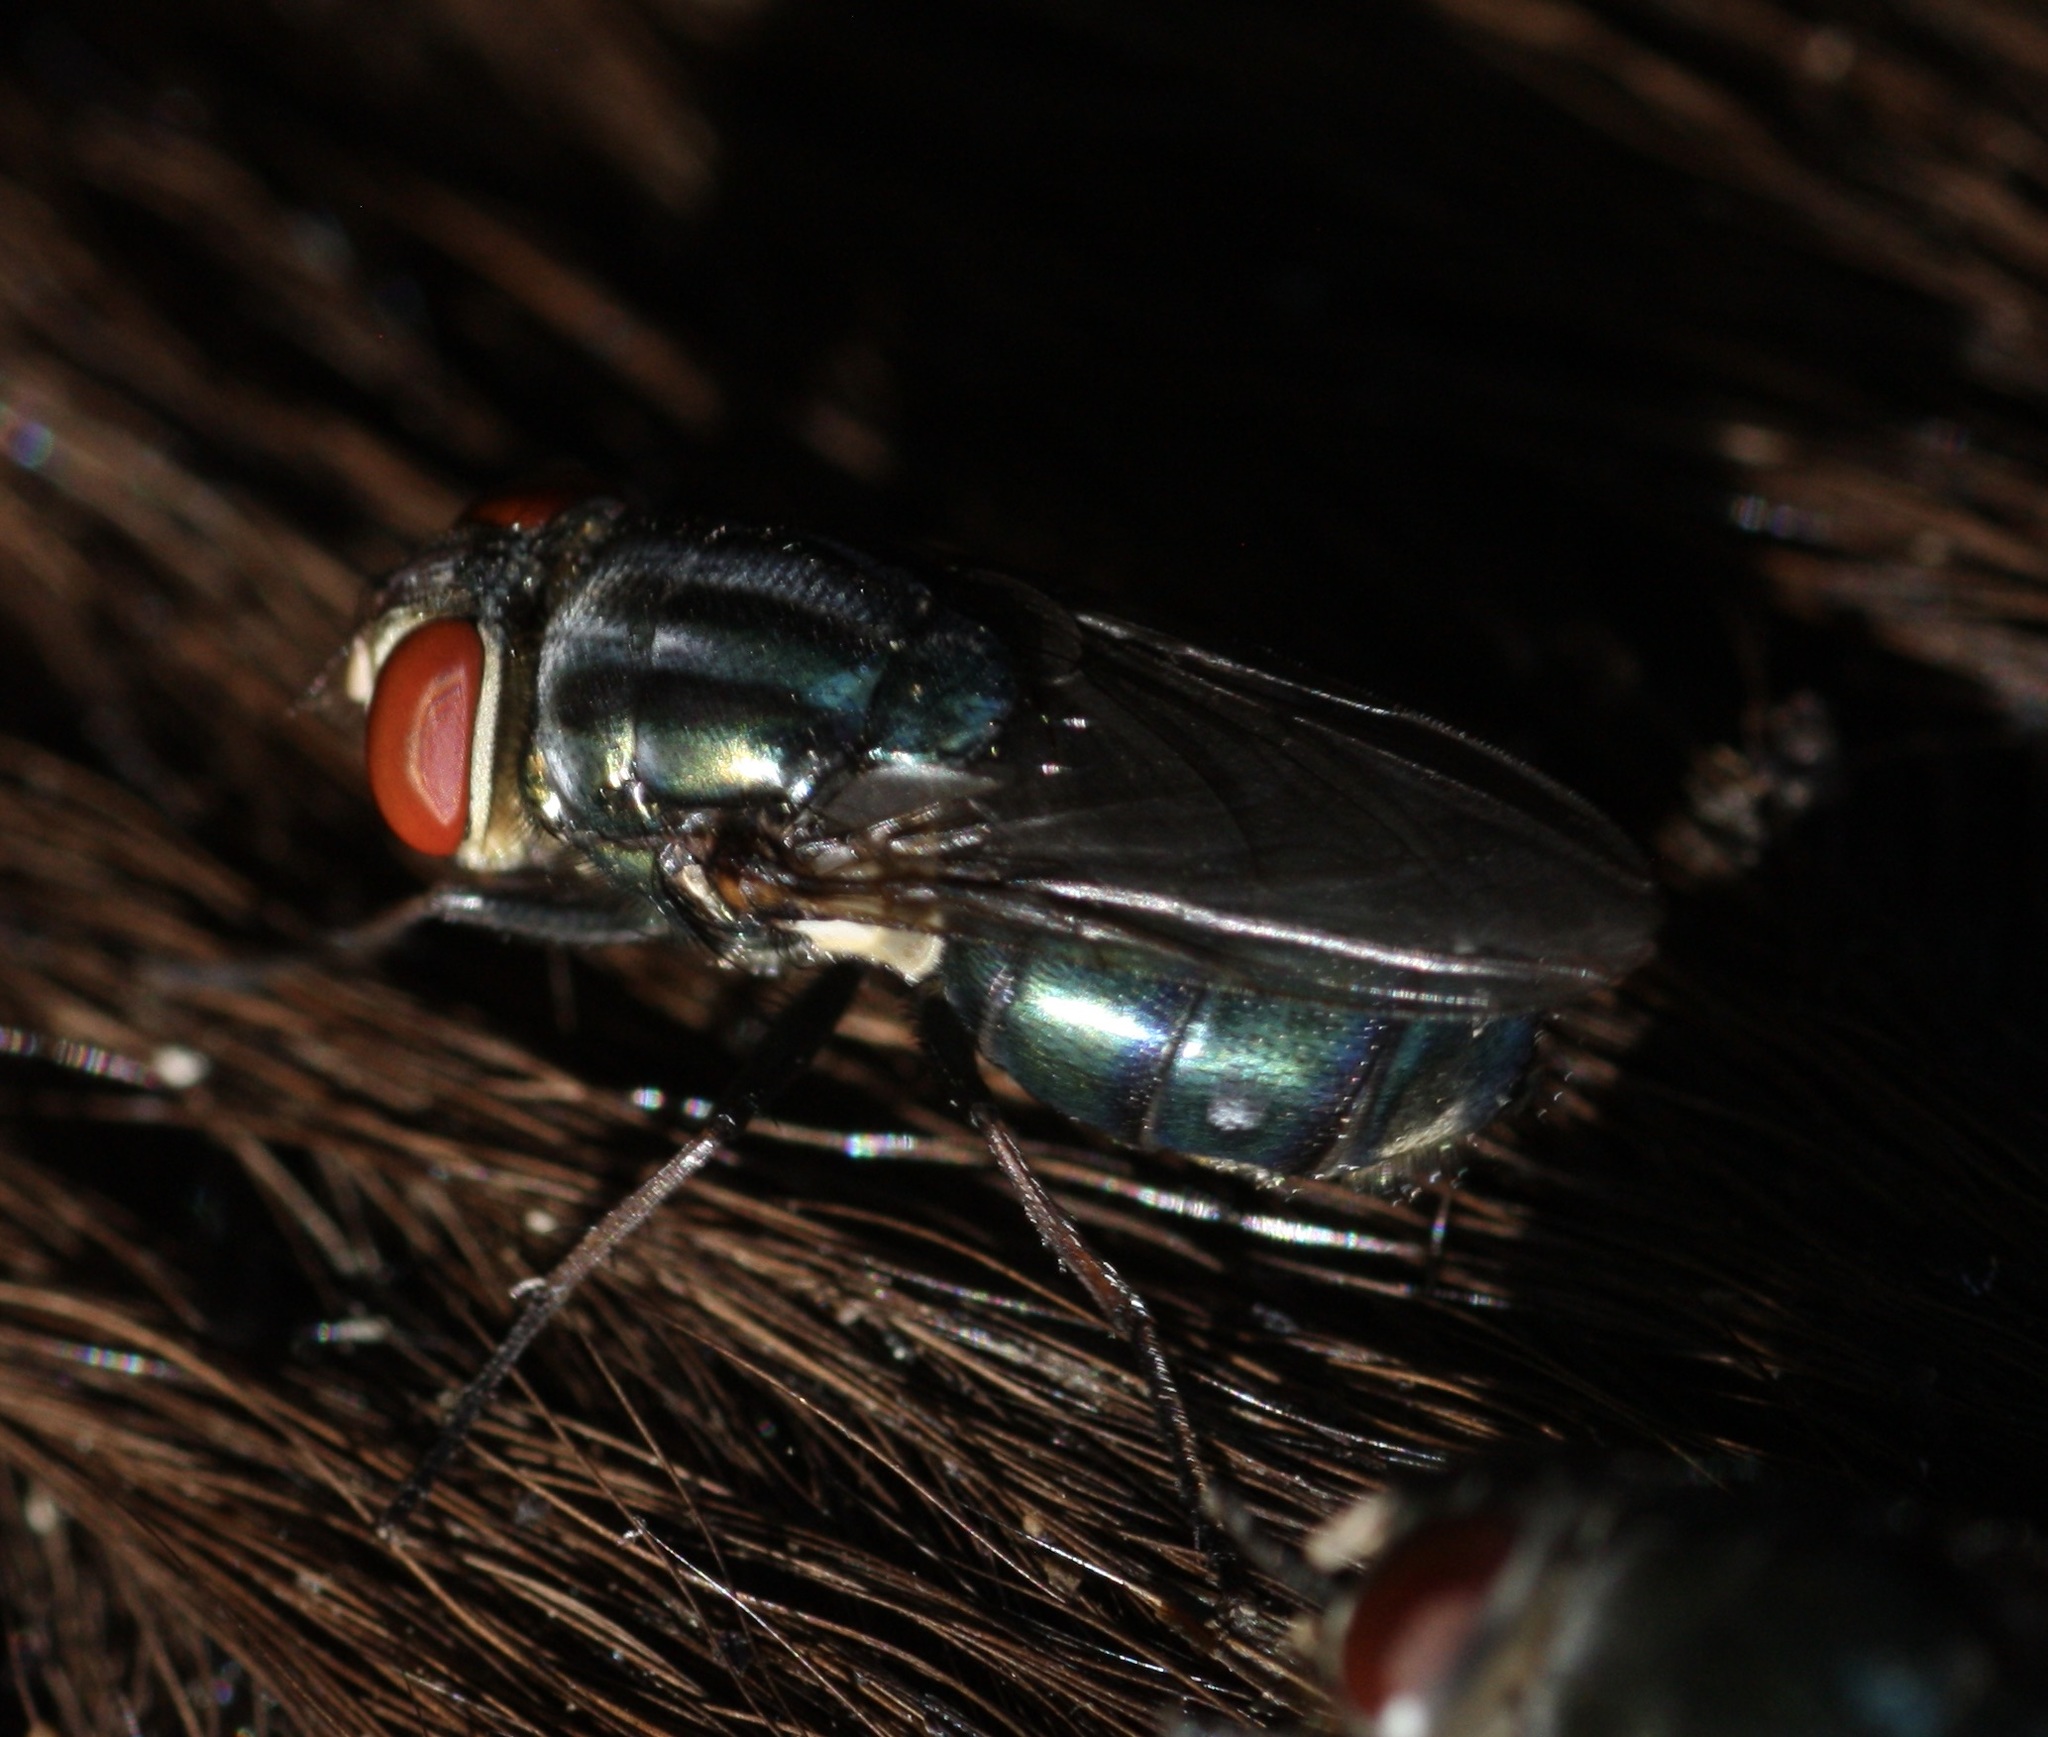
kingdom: Animalia
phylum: Arthropoda
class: Insecta
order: Diptera
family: Calliphoridae
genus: Cochliomyia
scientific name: Cochliomyia macellaria
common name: Secondary screwworm
